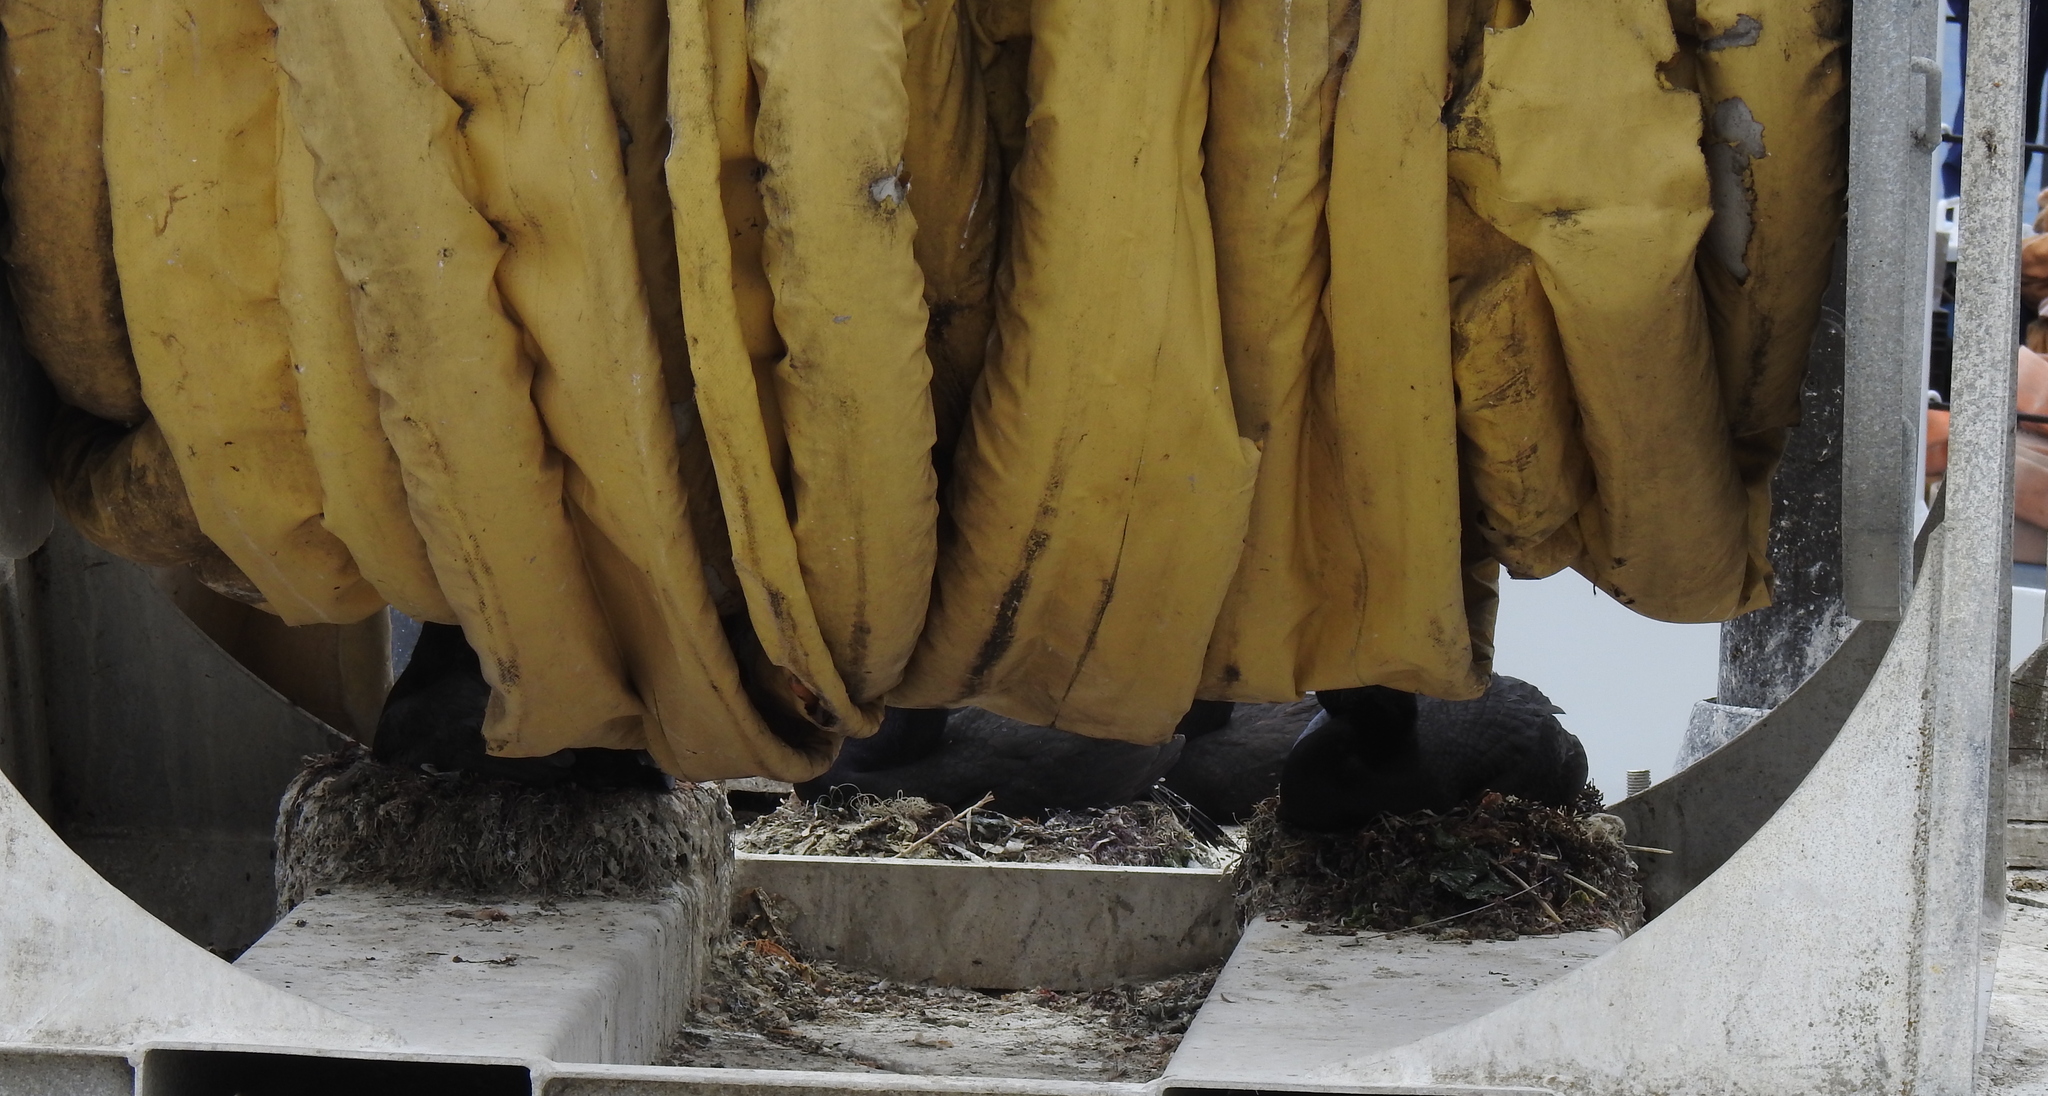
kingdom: Animalia
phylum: Chordata
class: Aves
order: Suliformes
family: Phalacrocoracidae
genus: Urile
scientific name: Urile penicillatus
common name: Brandt's cormorant
